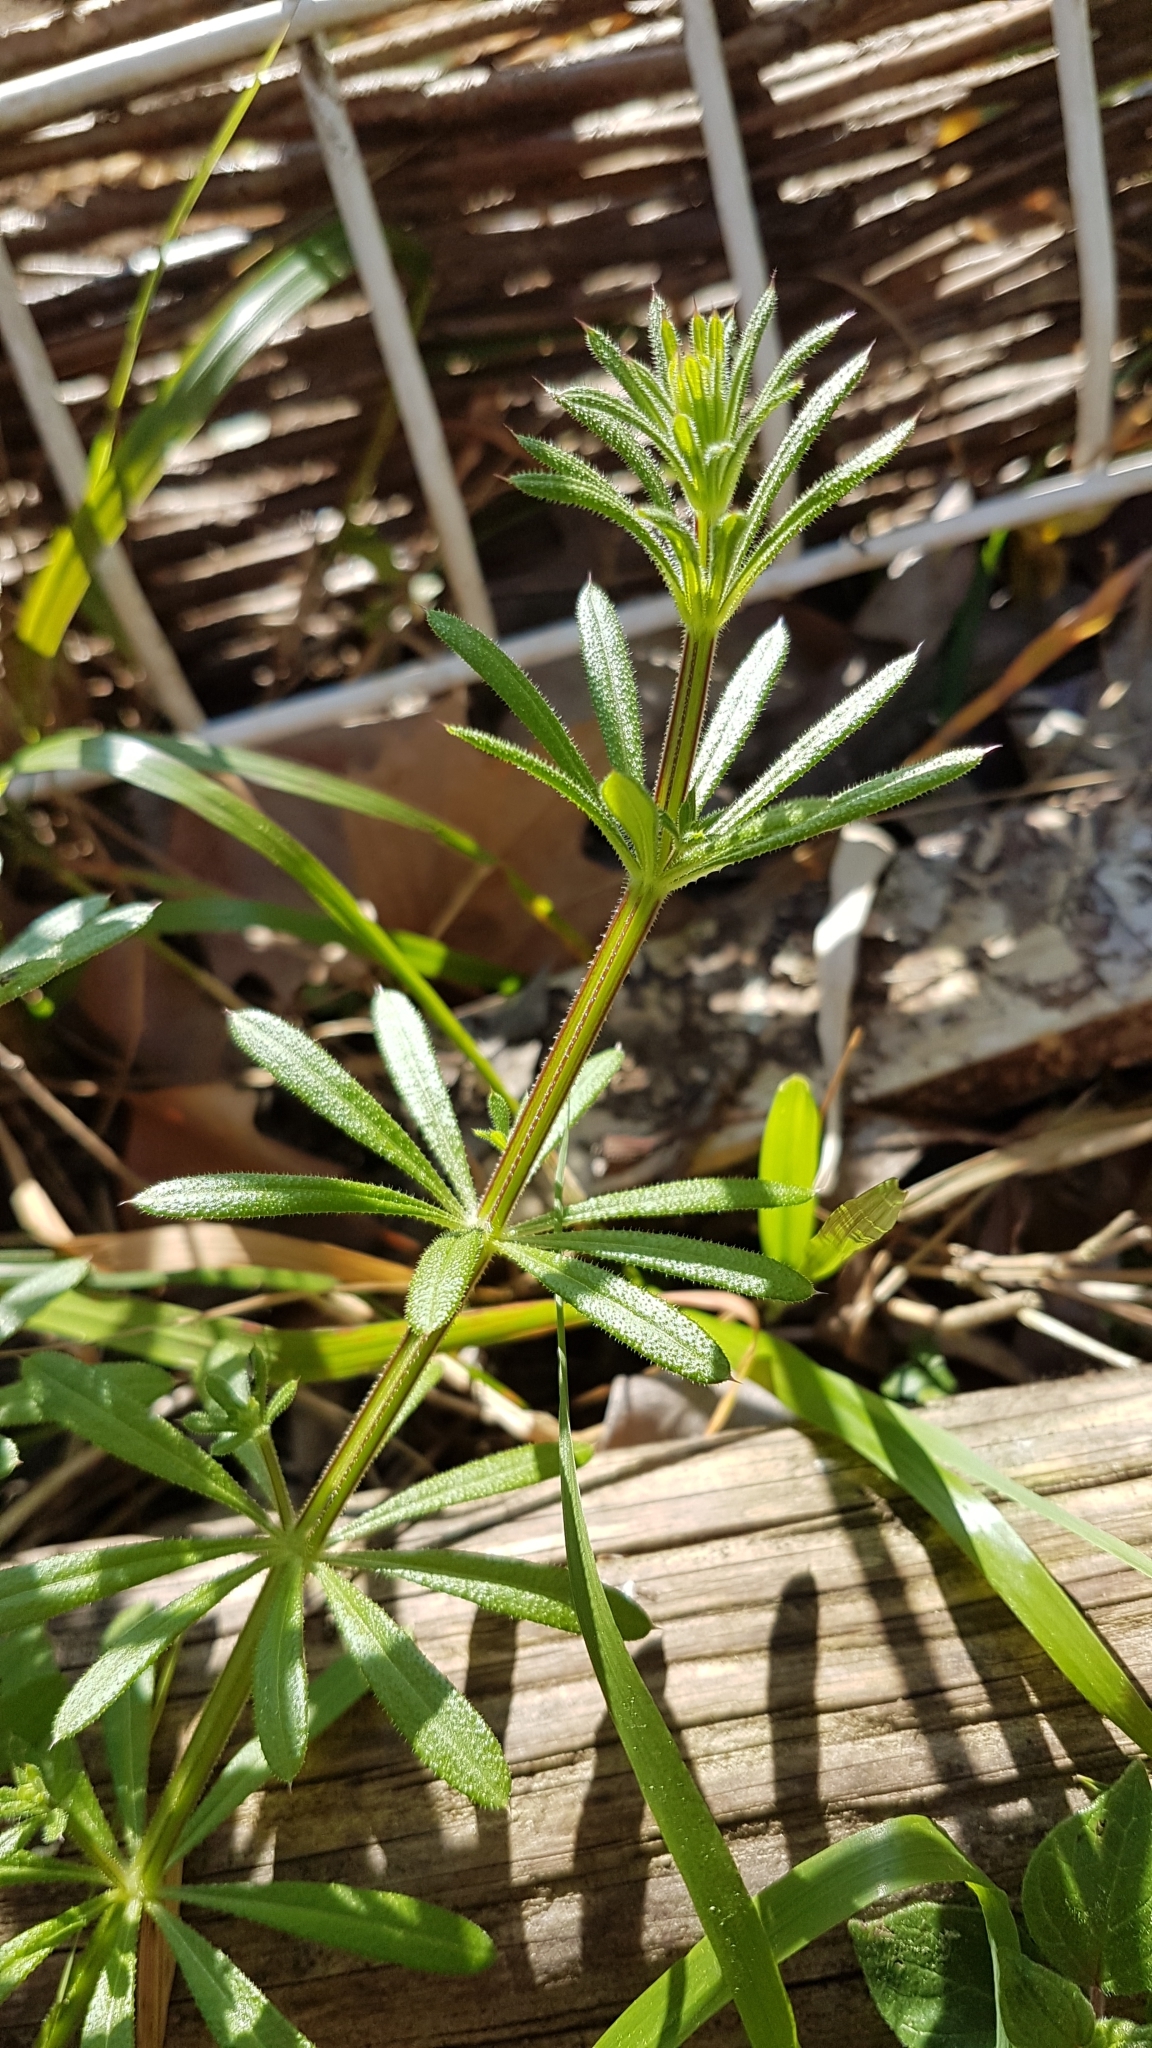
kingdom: Plantae
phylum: Tracheophyta
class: Magnoliopsida
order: Gentianales
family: Rubiaceae
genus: Galium
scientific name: Galium aparine
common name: Cleavers
